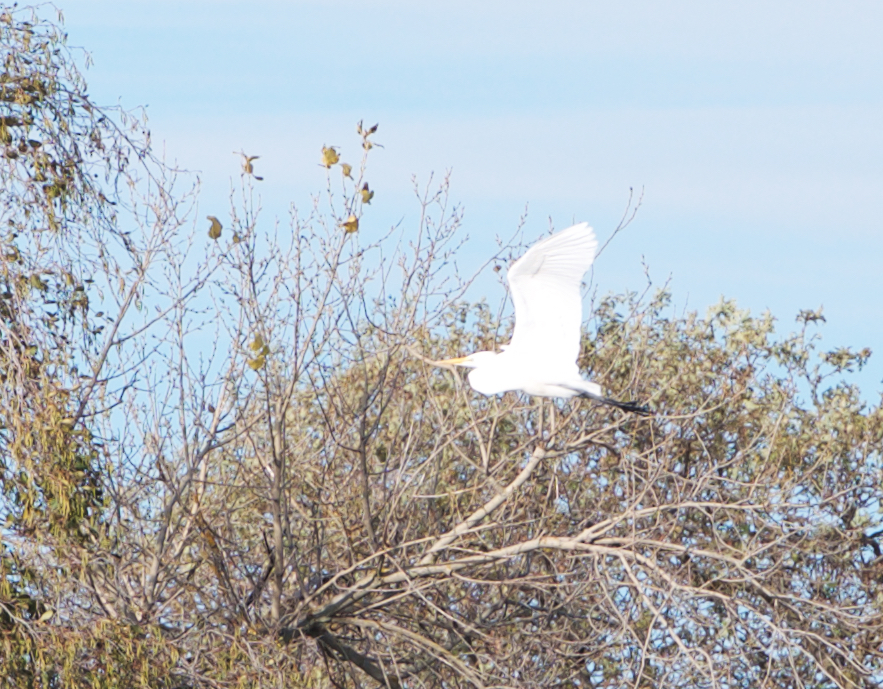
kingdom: Animalia
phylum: Chordata
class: Aves
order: Pelecaniformes
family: Ardeidae
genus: Ardea
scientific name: Ardea alba
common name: Great egret
